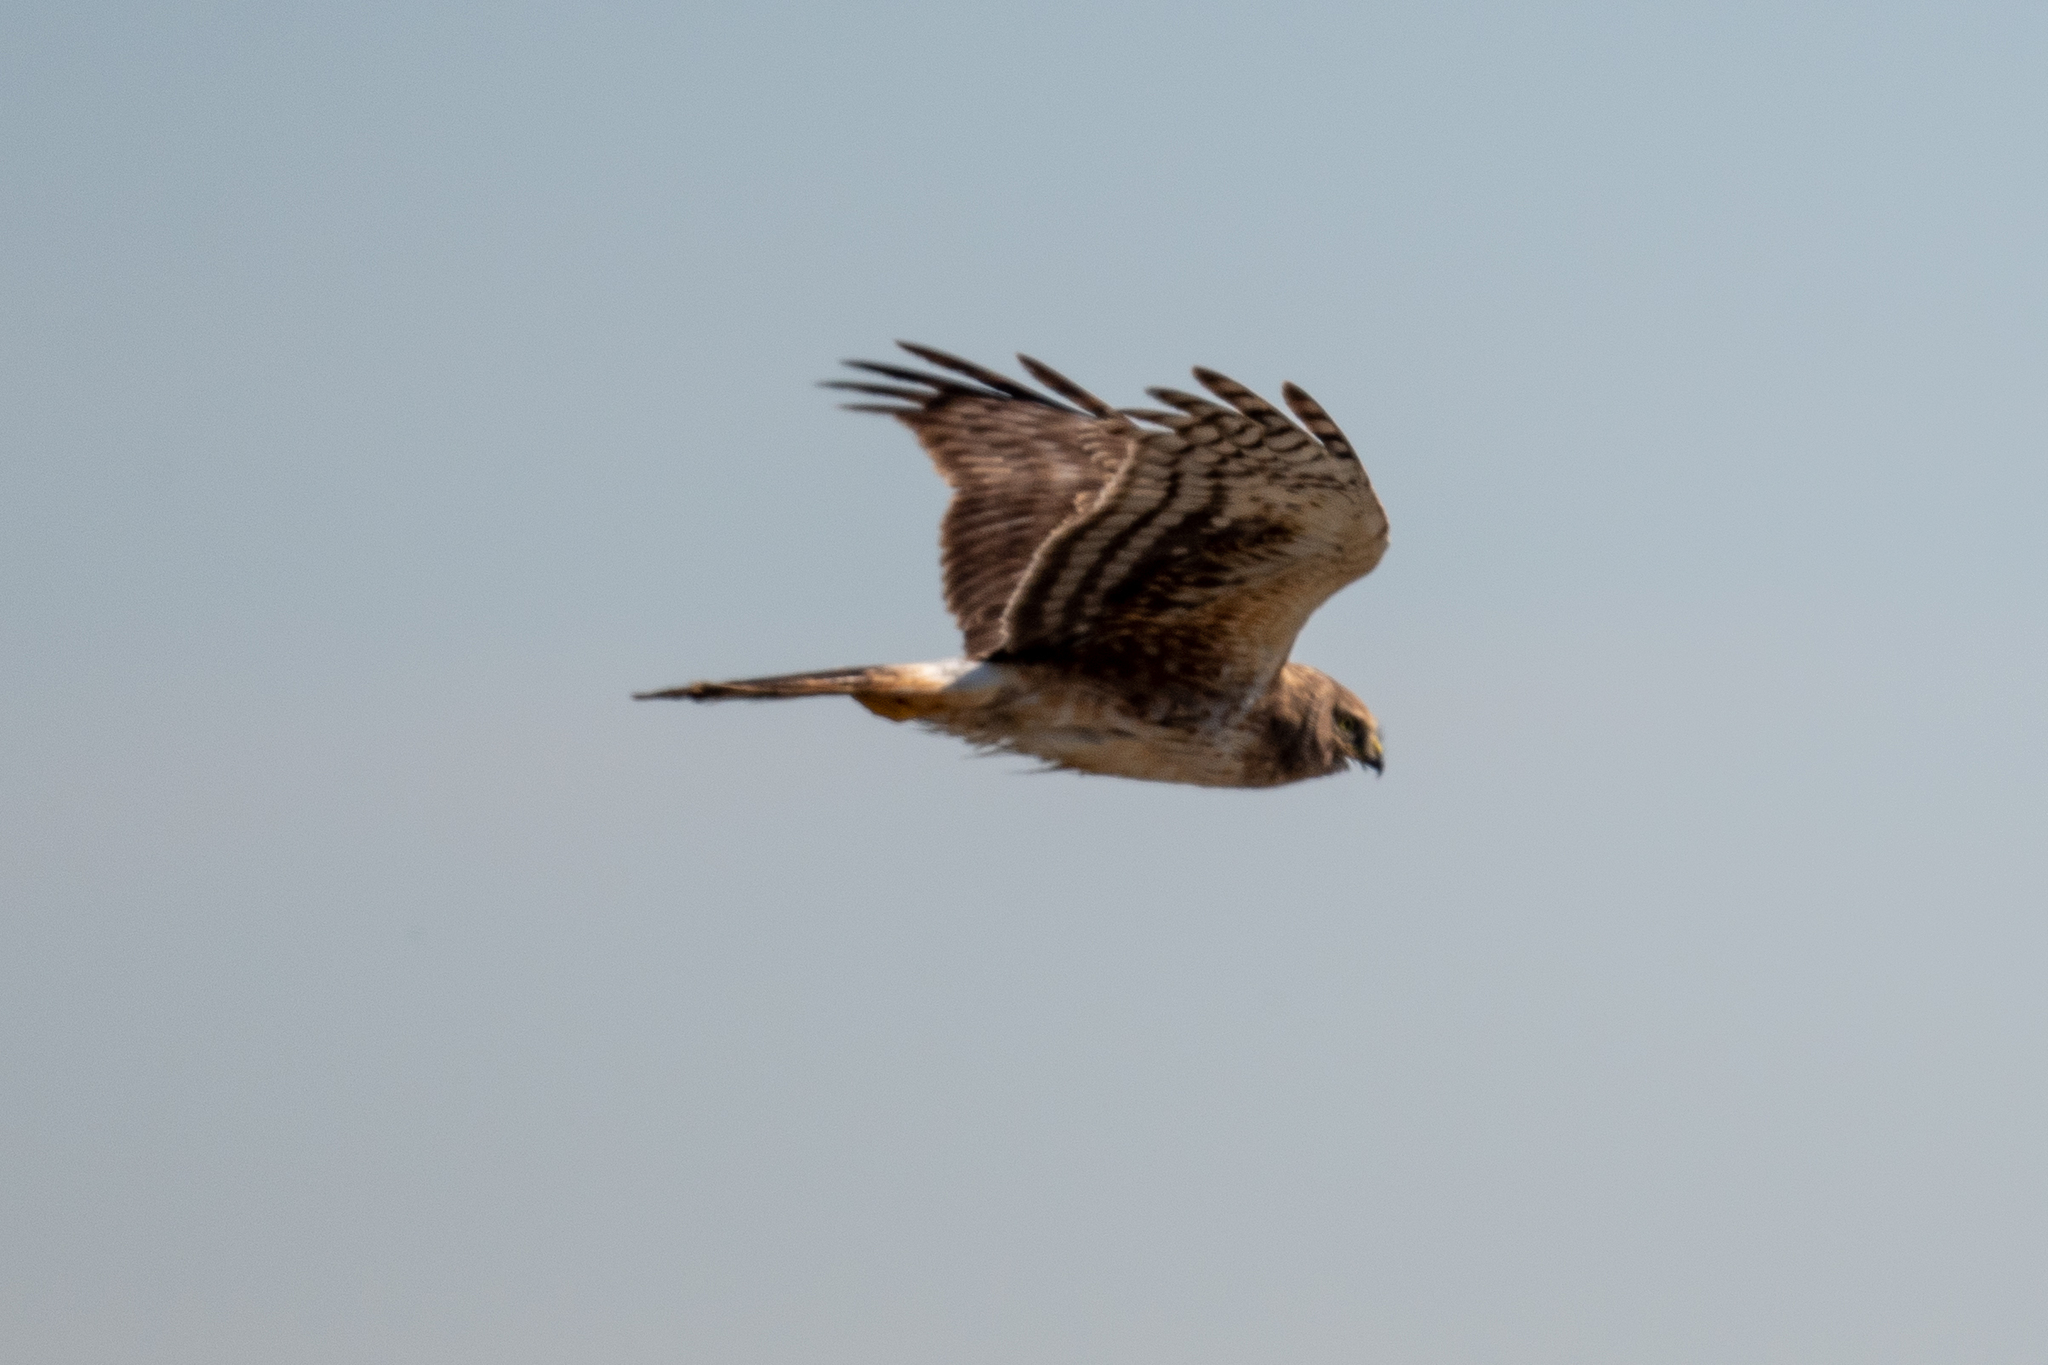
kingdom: Animalia
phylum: Chordata
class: Aves
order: Accipitriformes
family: Accipitridae
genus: Circus
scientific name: Circus cyaneus
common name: Hen harrier
